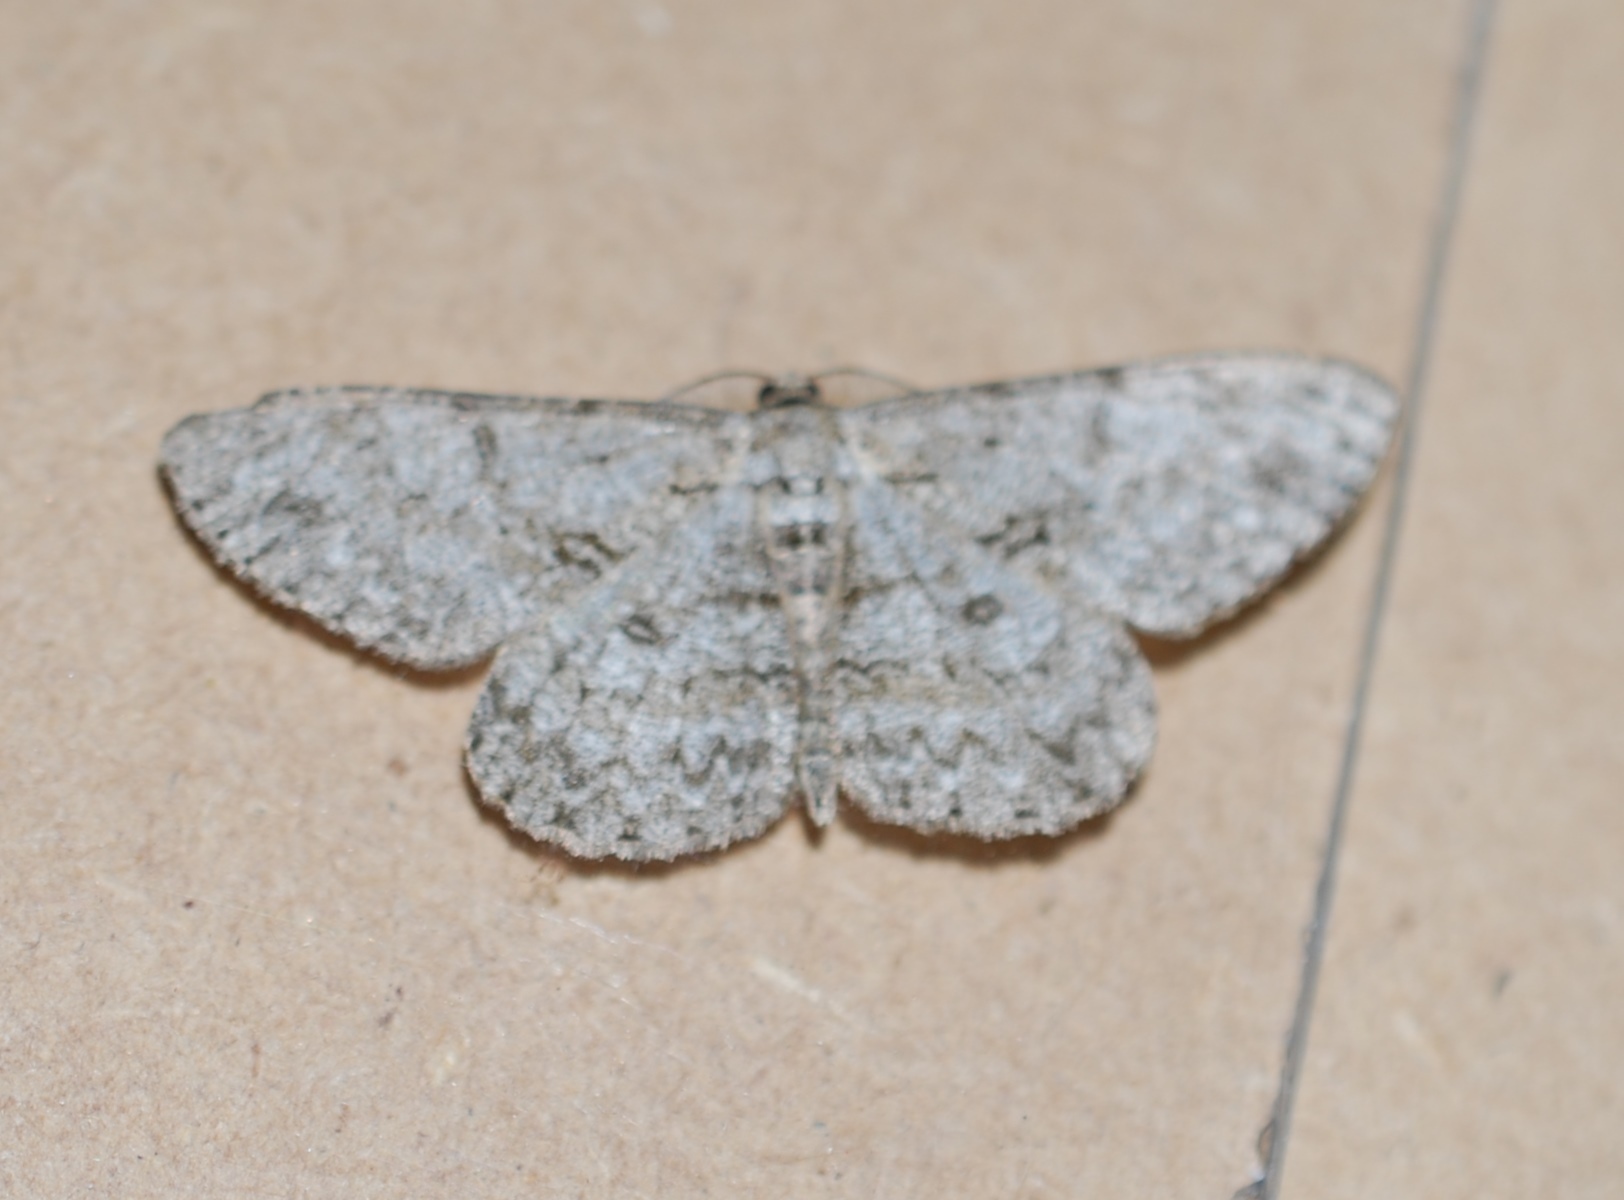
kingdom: Animalia
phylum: Arthropoda
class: Insecta
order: Lepidoptera
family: Geometridae
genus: Hypomecis
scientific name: Hypomecis punctinalis
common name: Pale oak beauty
